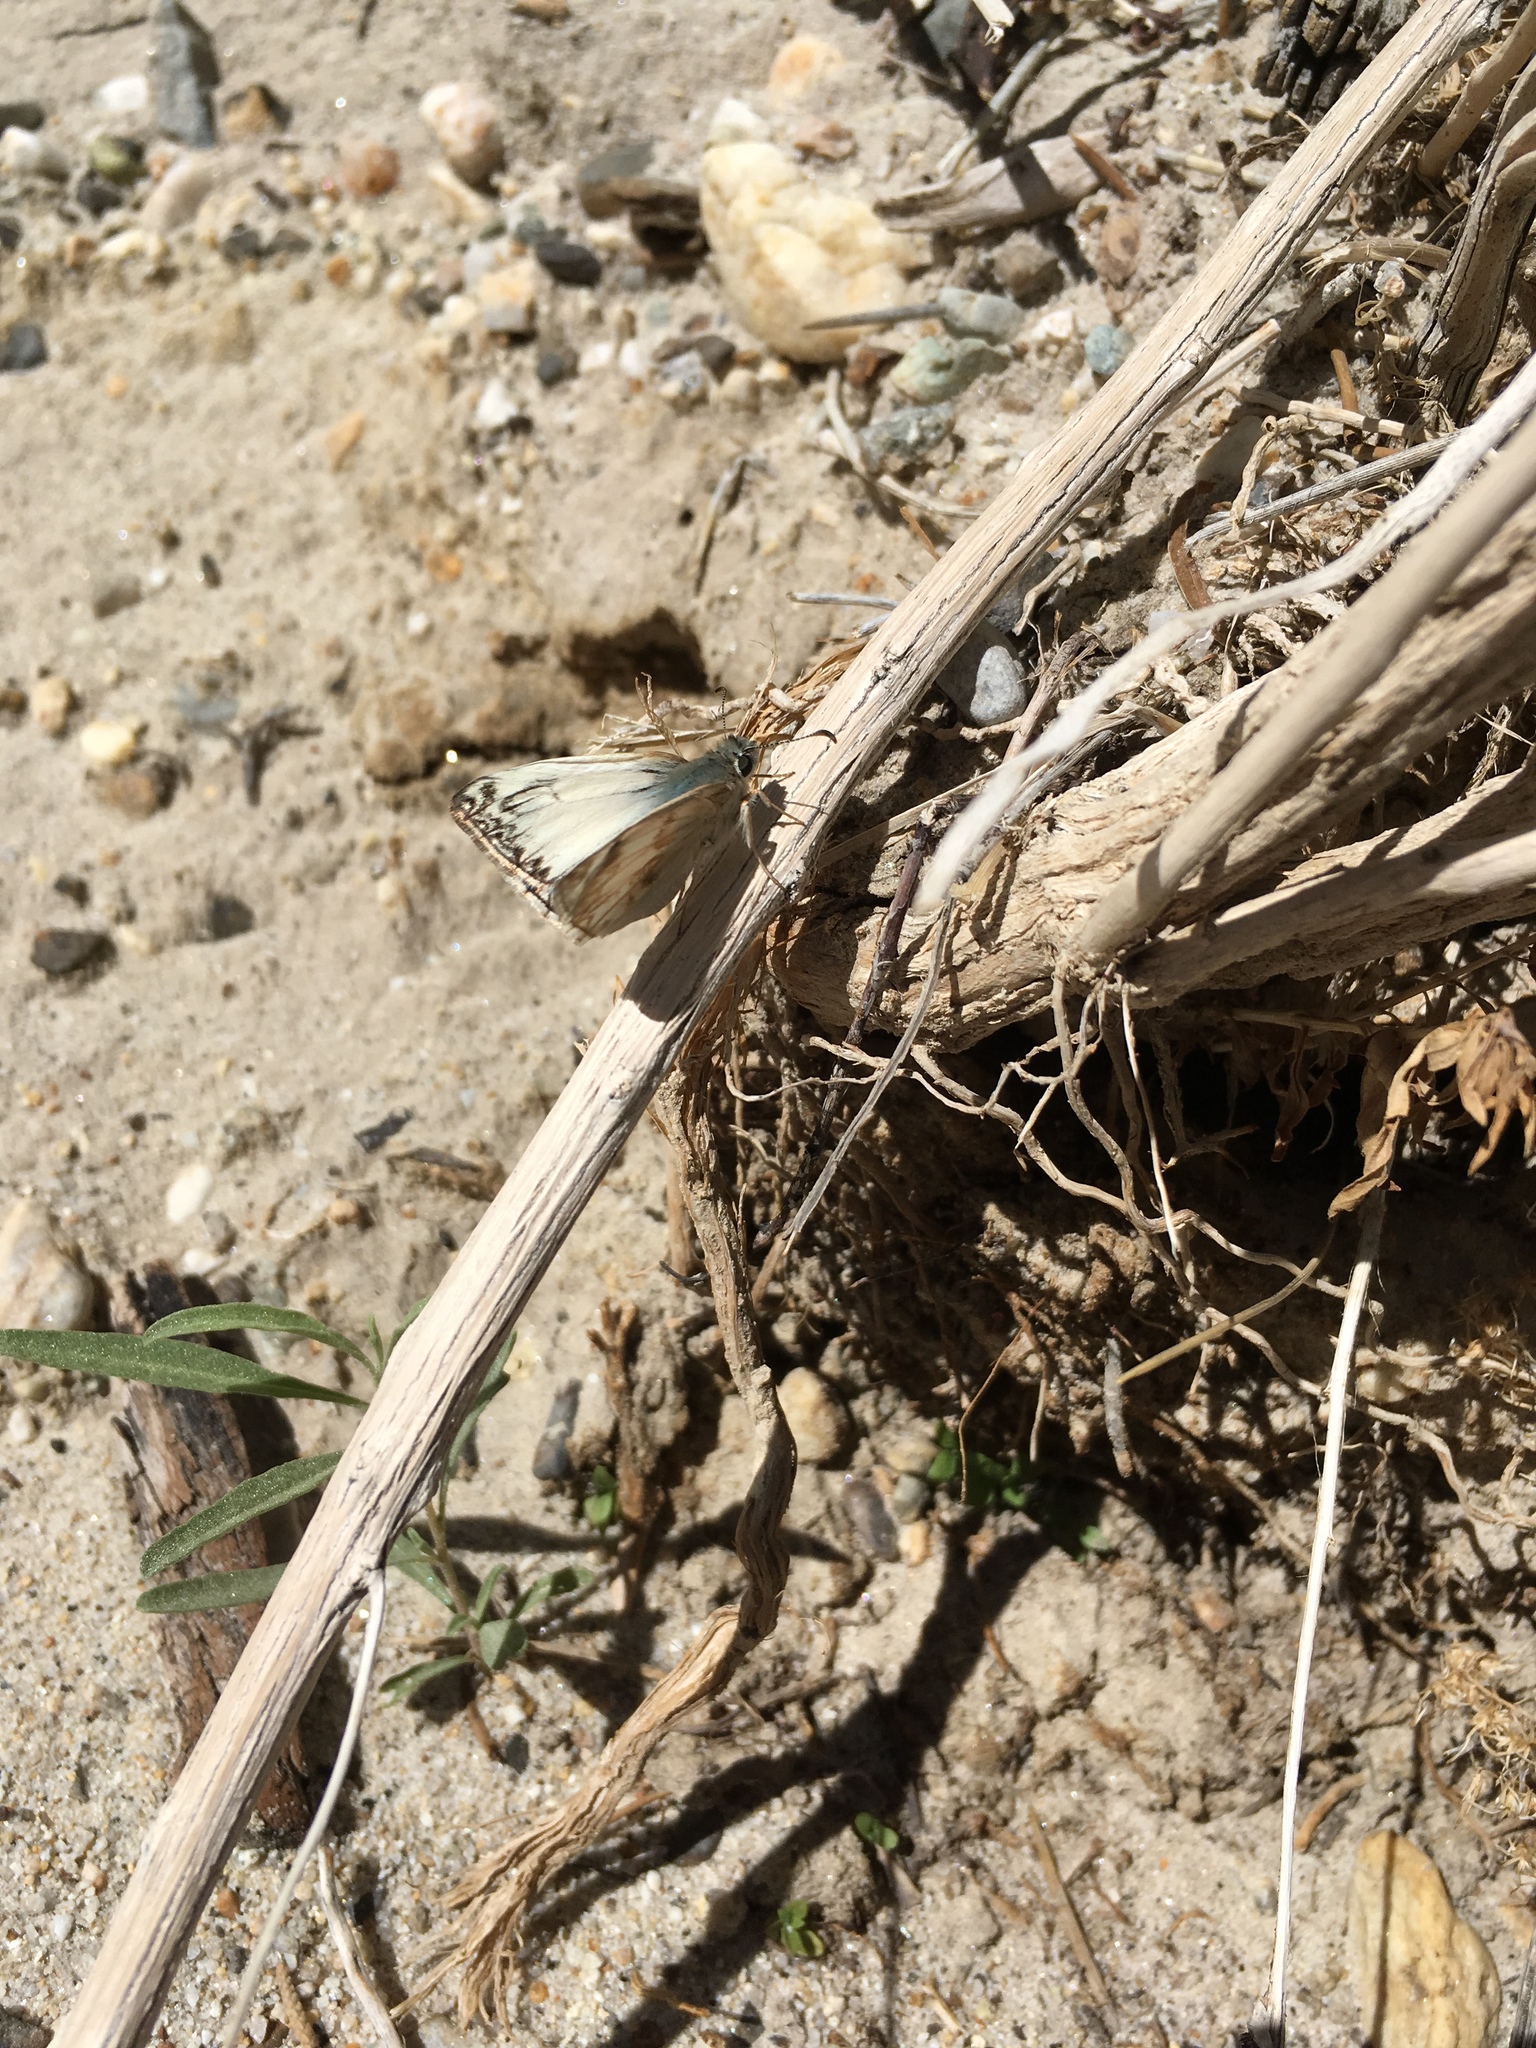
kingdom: Animalia
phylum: Arthropoda
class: Insecta
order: Lepidoptera
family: Hesperiidae
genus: Heliopetes
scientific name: Heliopetes ericetorum
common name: Northern white-skipper
